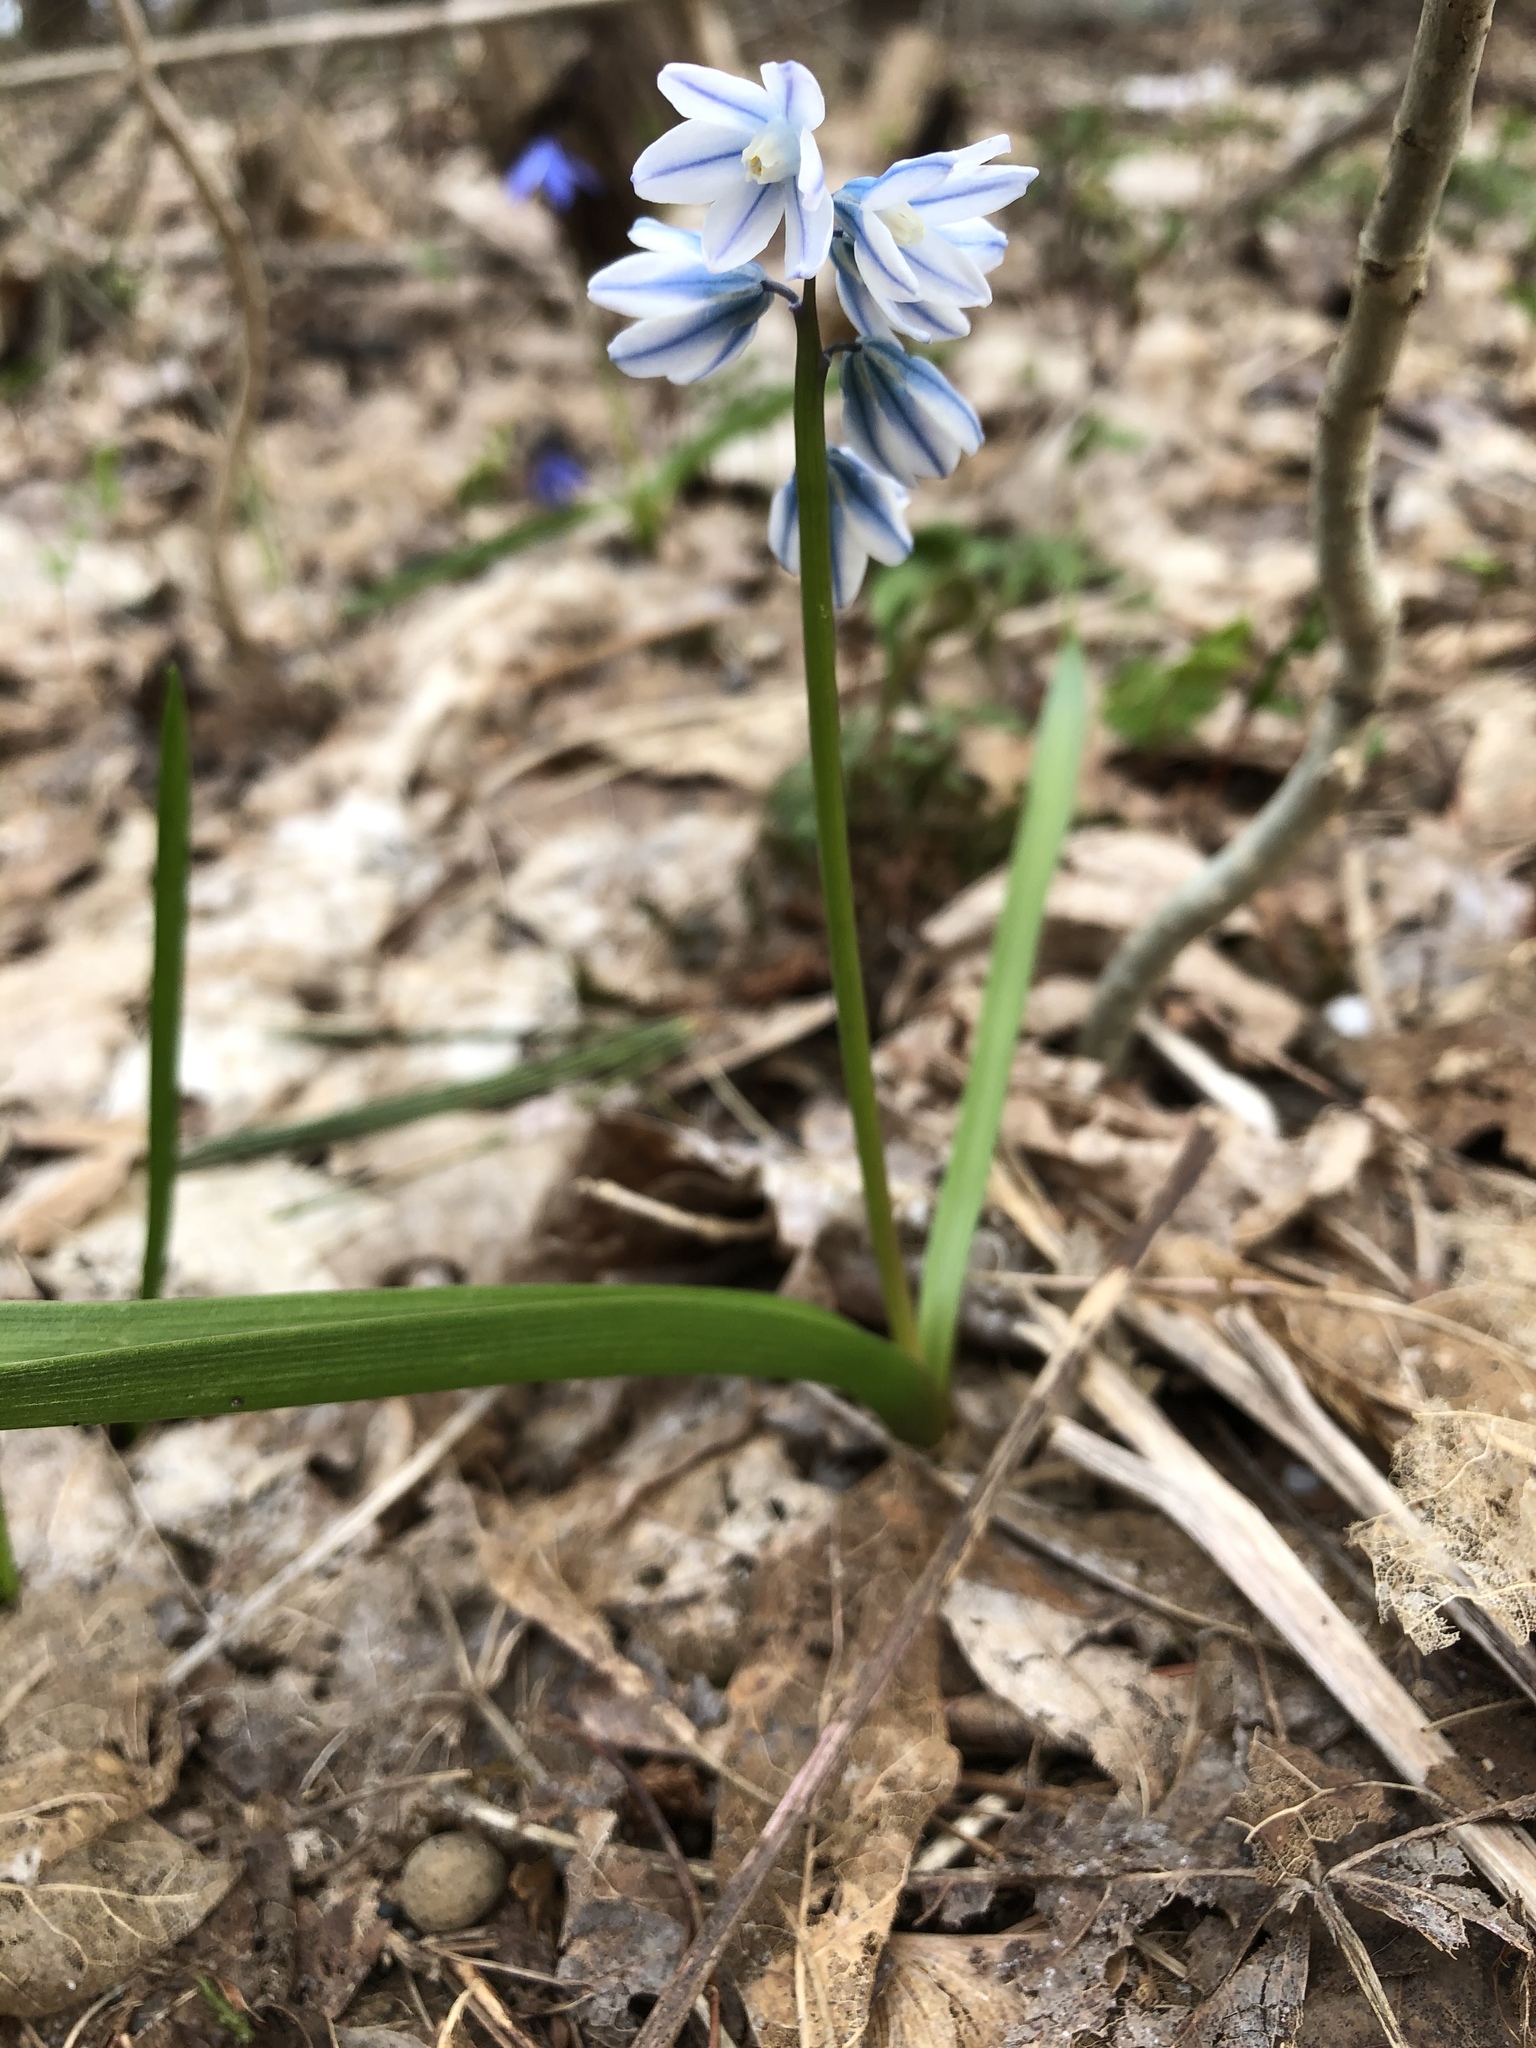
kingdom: Plantae
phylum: Tracheophyta
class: Liliopsida
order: Asparagales
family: Asparagaceae
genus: Puschkinia
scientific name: Puschkinia scilloides
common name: Striped squill
